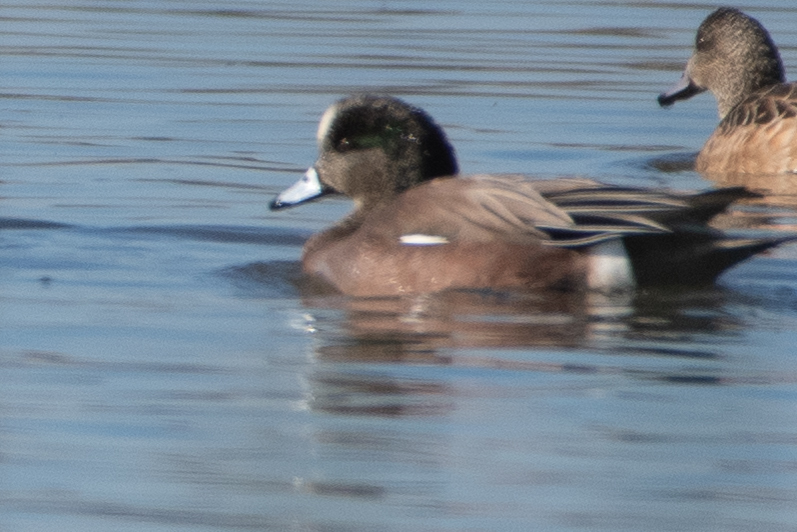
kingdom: Animalia
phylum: Chordata
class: Aves
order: Anseriformes
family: Anatidae
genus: Mareca
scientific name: Mareca americana
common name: American wigeon
